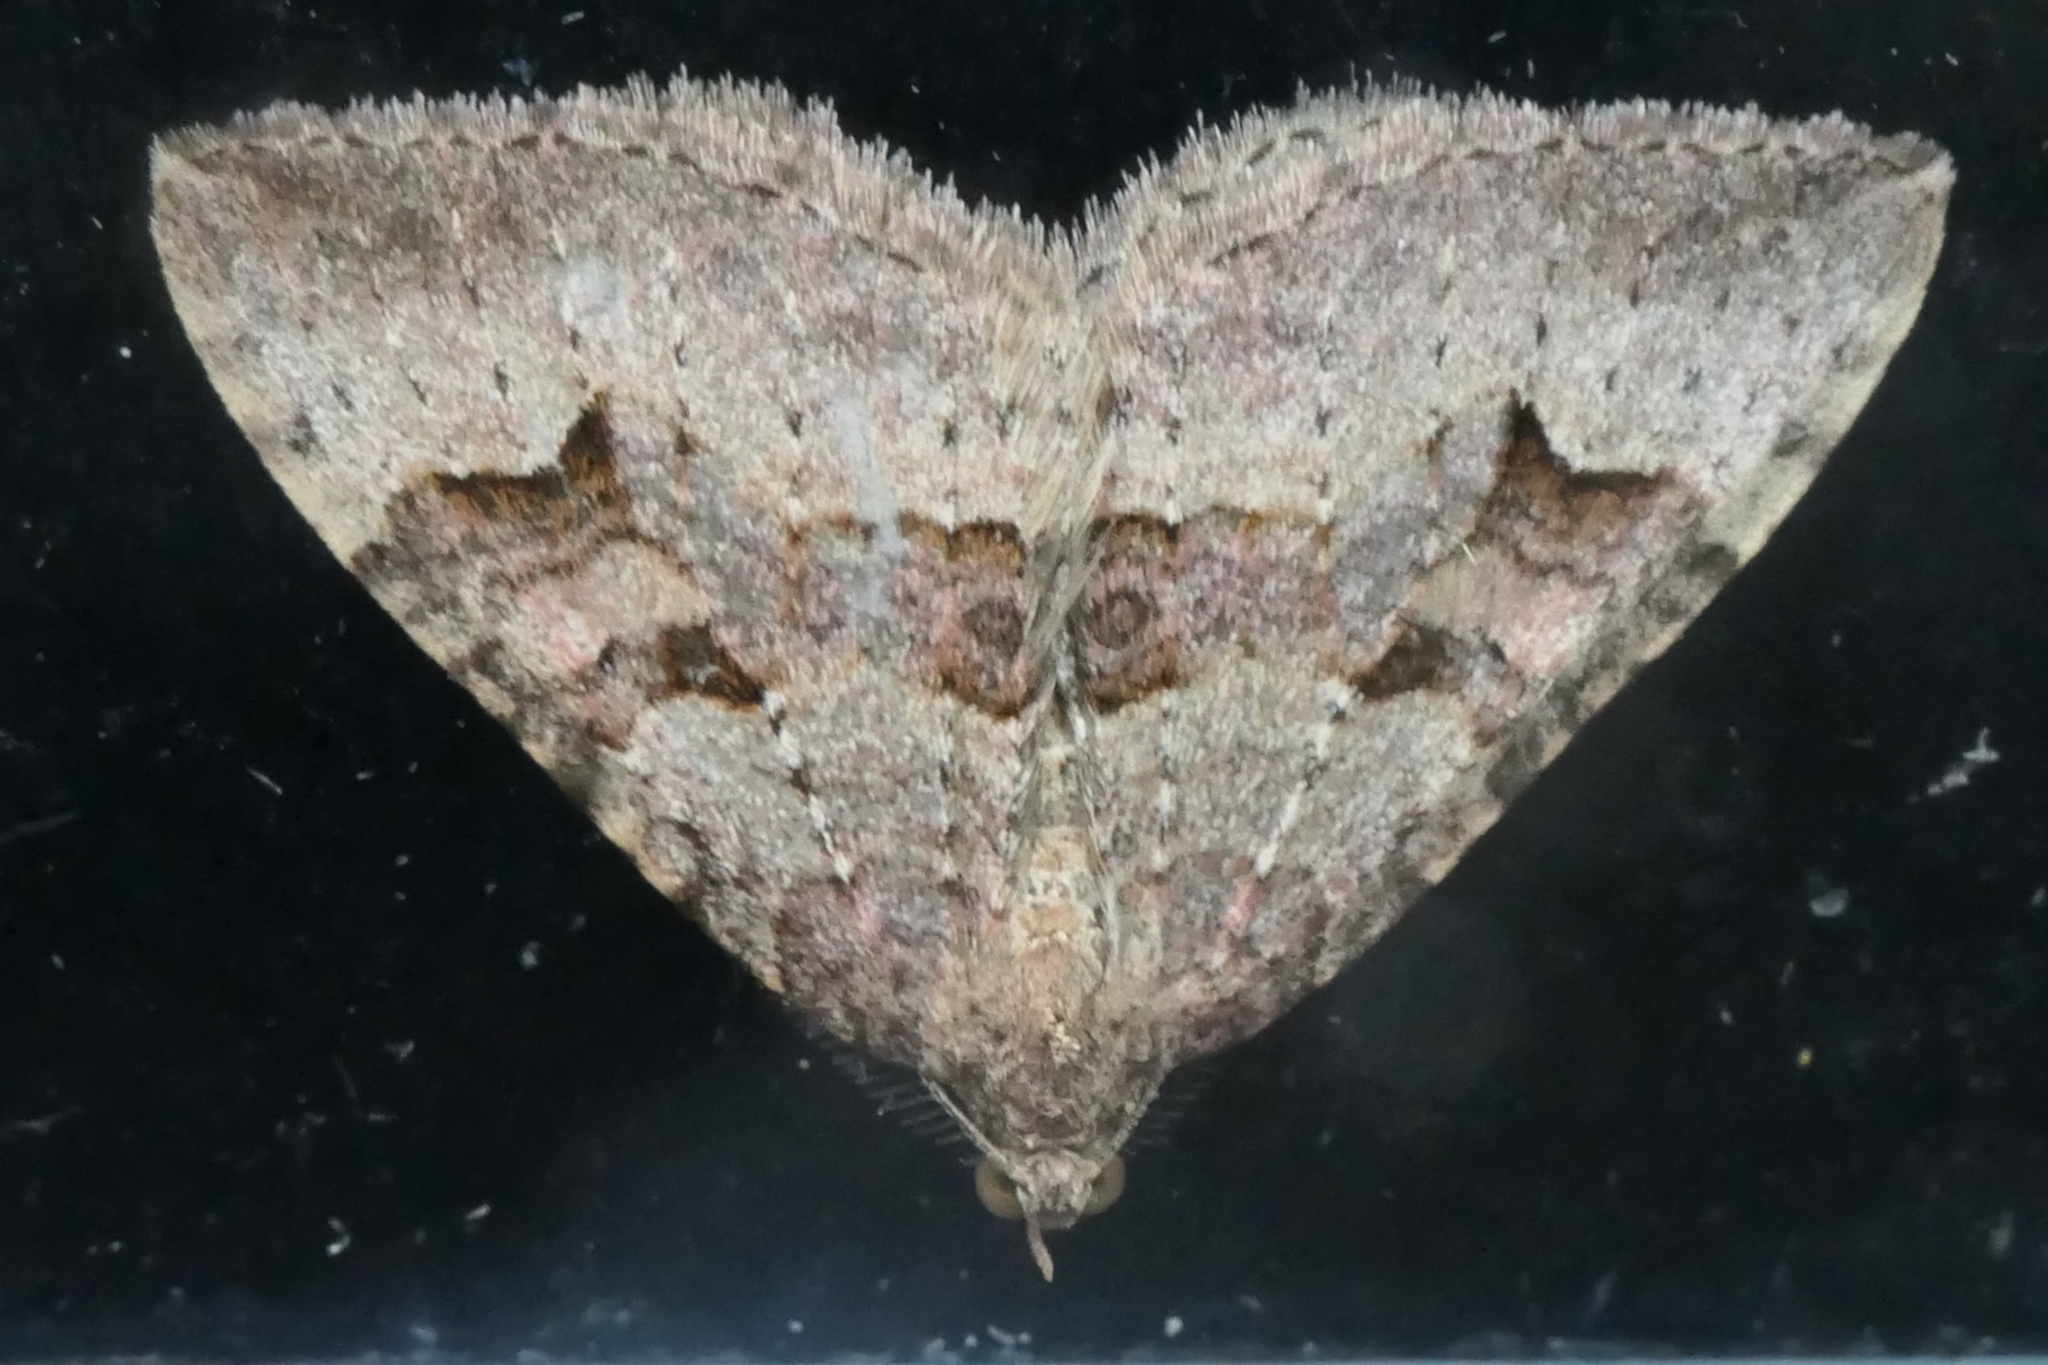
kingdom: Animalia
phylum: Arthropoda
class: Insecta
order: Lepidoptera
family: Geometridae
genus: Epyaxa
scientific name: Epyaxa rosearia
